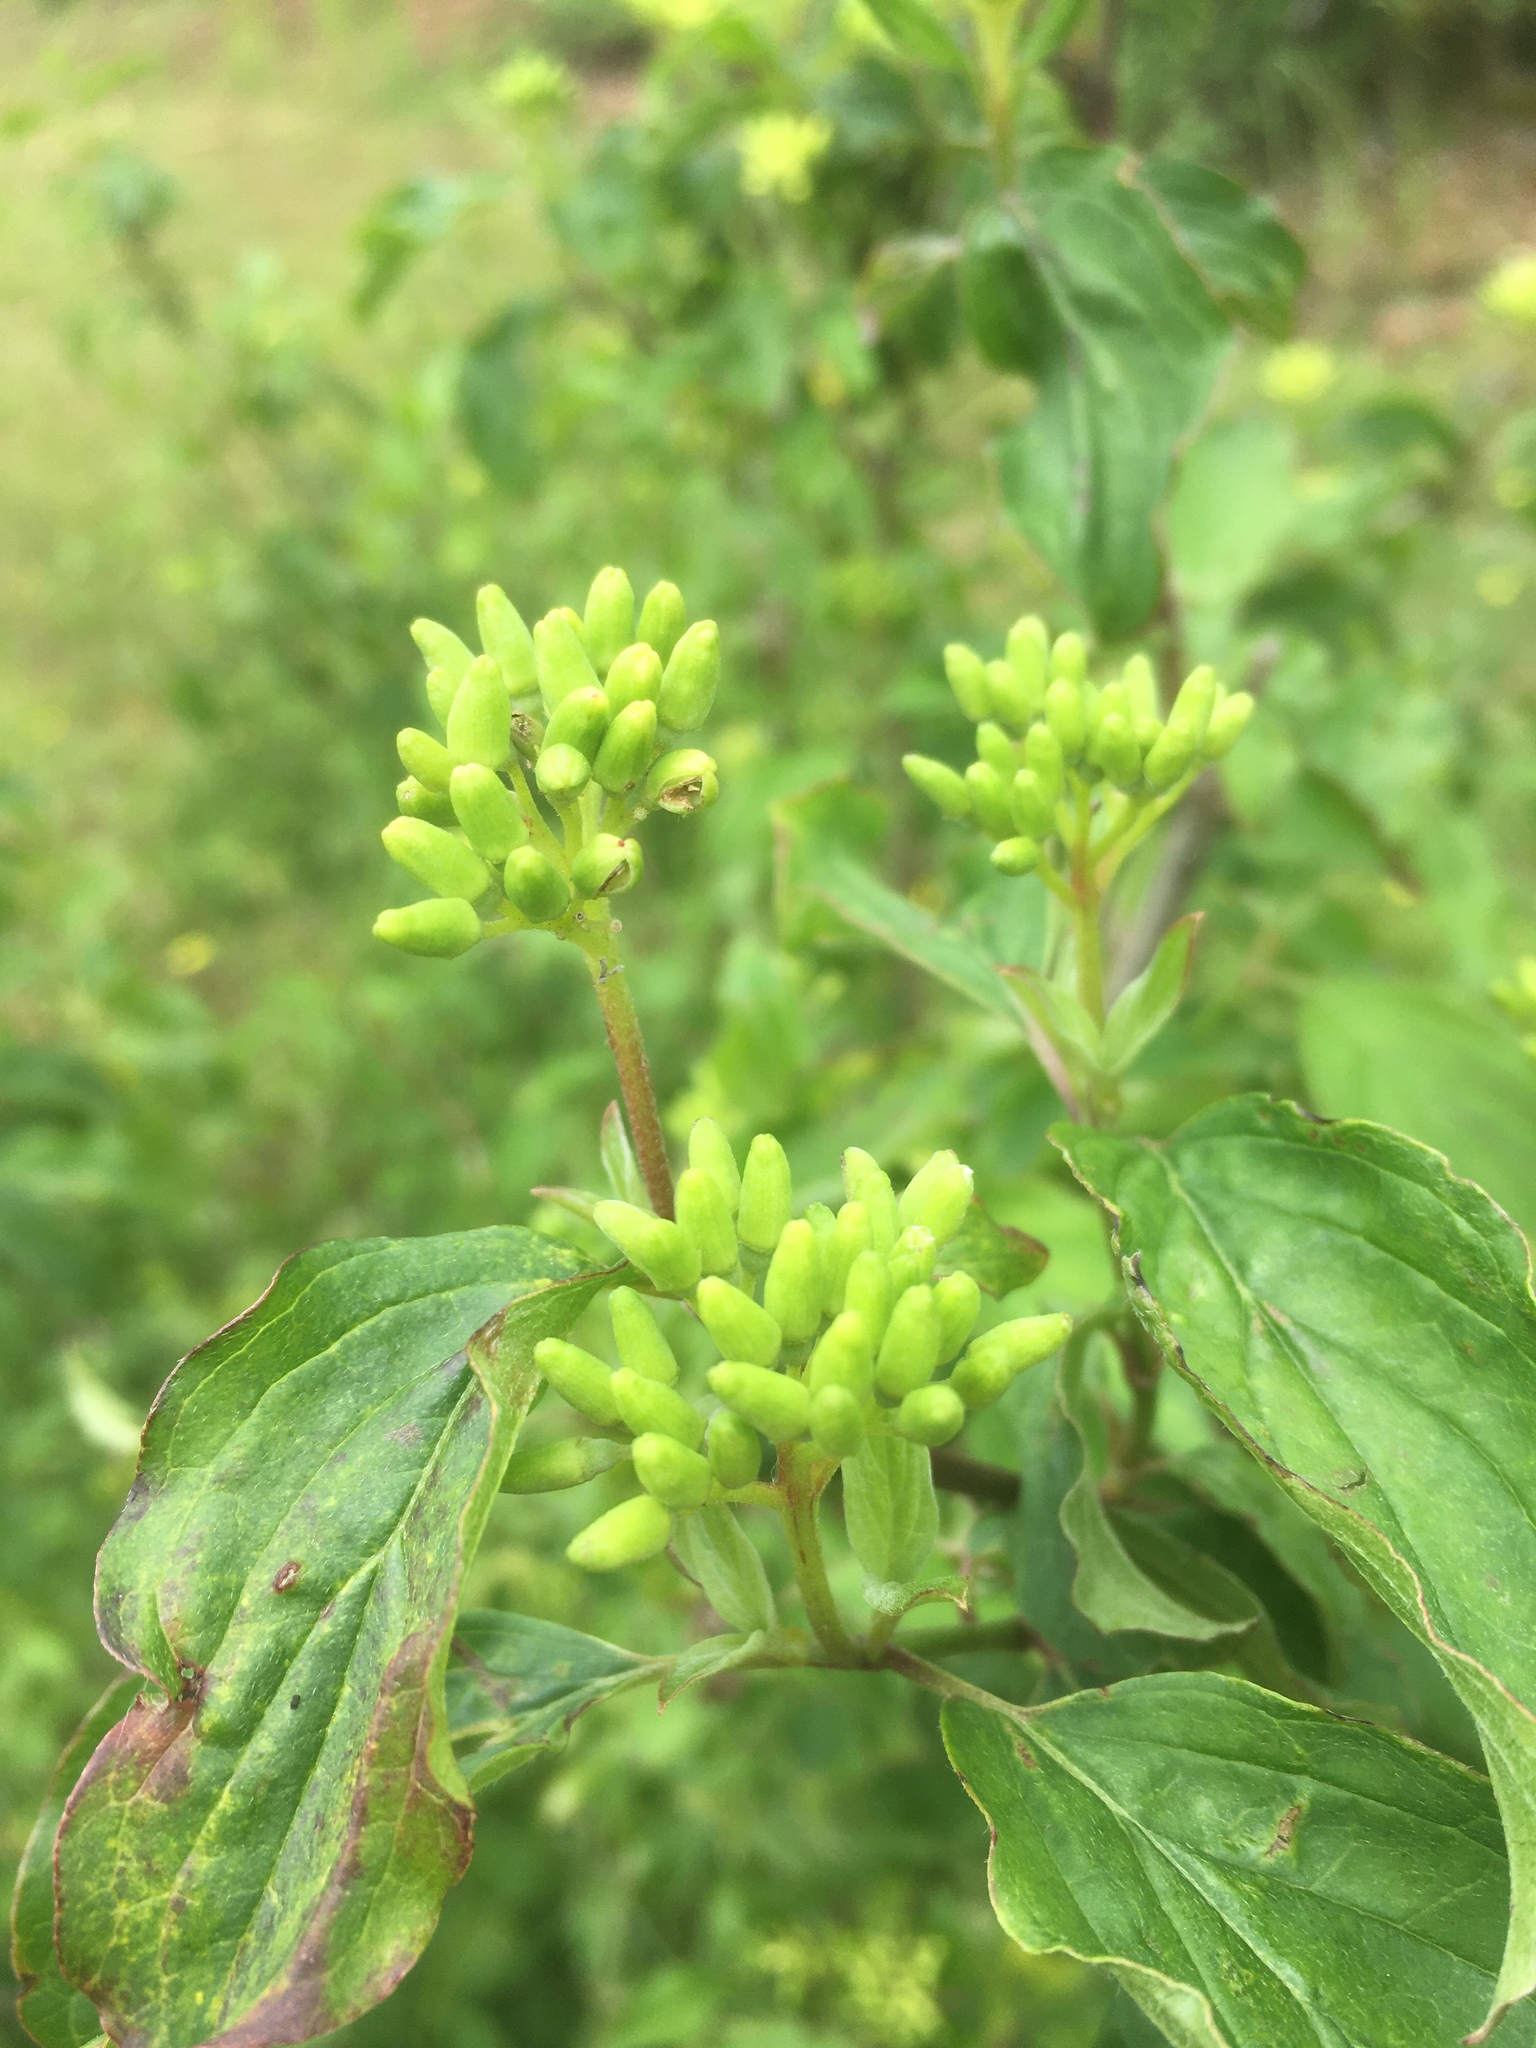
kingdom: Plantae
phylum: Tracheophyta
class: Magnoliopsida
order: Cornales
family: Cornaceae
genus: Cornus
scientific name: Cornus sanguinea
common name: Dogwood
